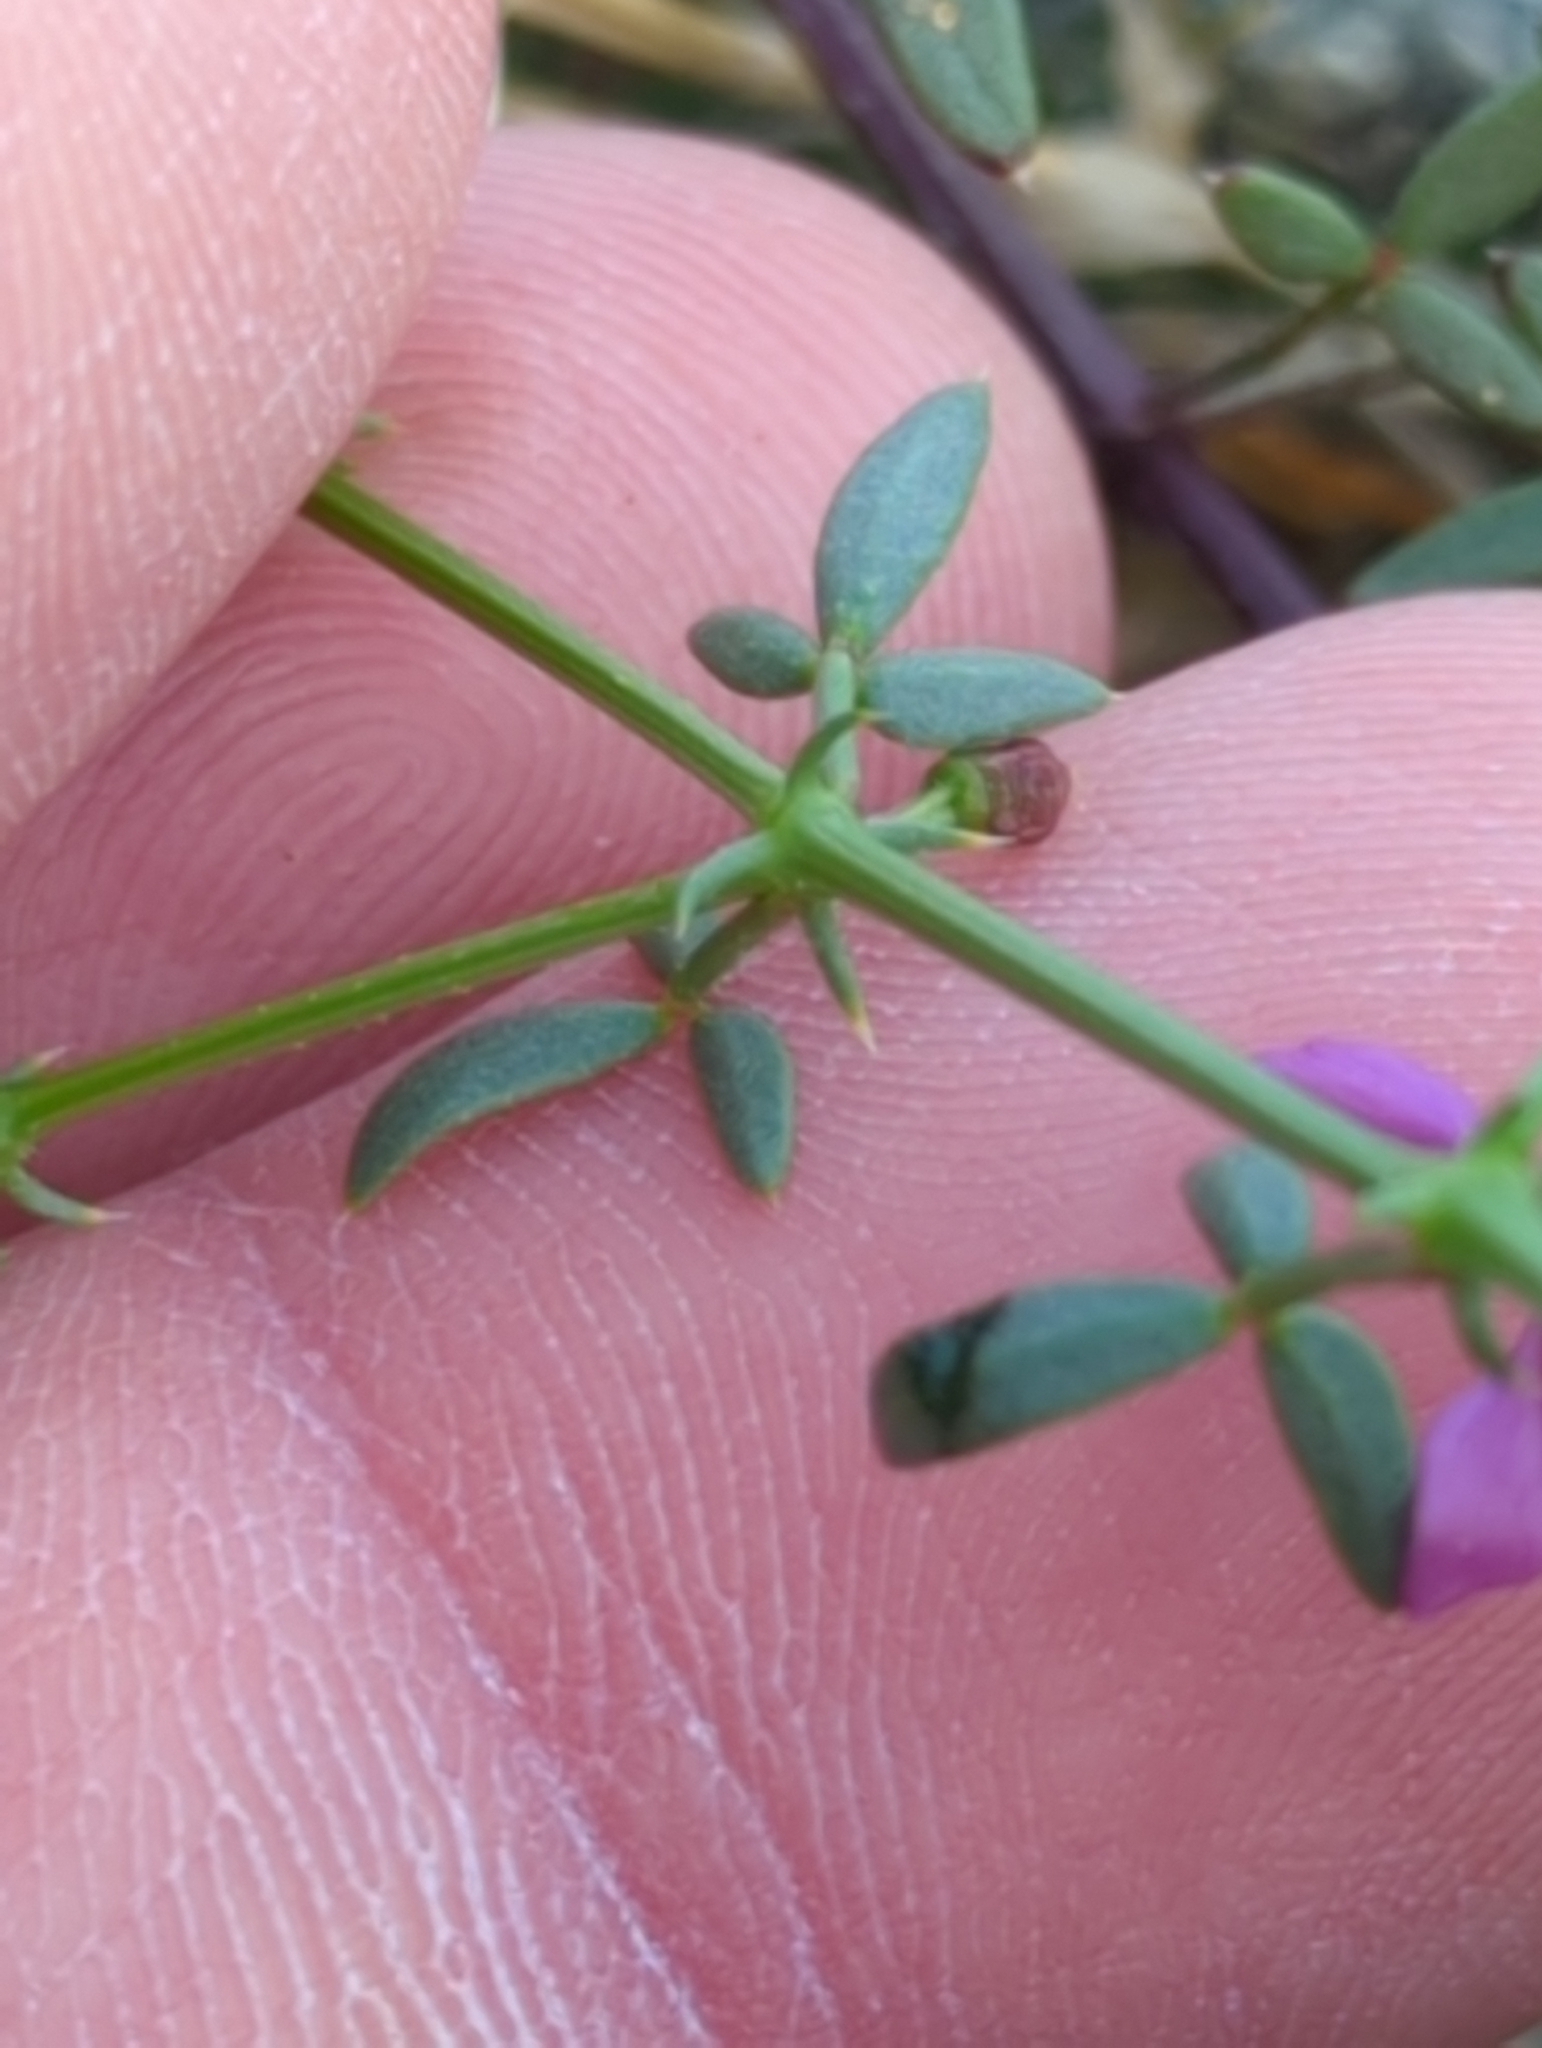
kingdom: Plantae
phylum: Tracheophyta
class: Magnoliopsida
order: Zygophyllales
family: Zygophyllaceae
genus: Fagonia
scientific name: Fagonia laevis
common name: California fagonbush
